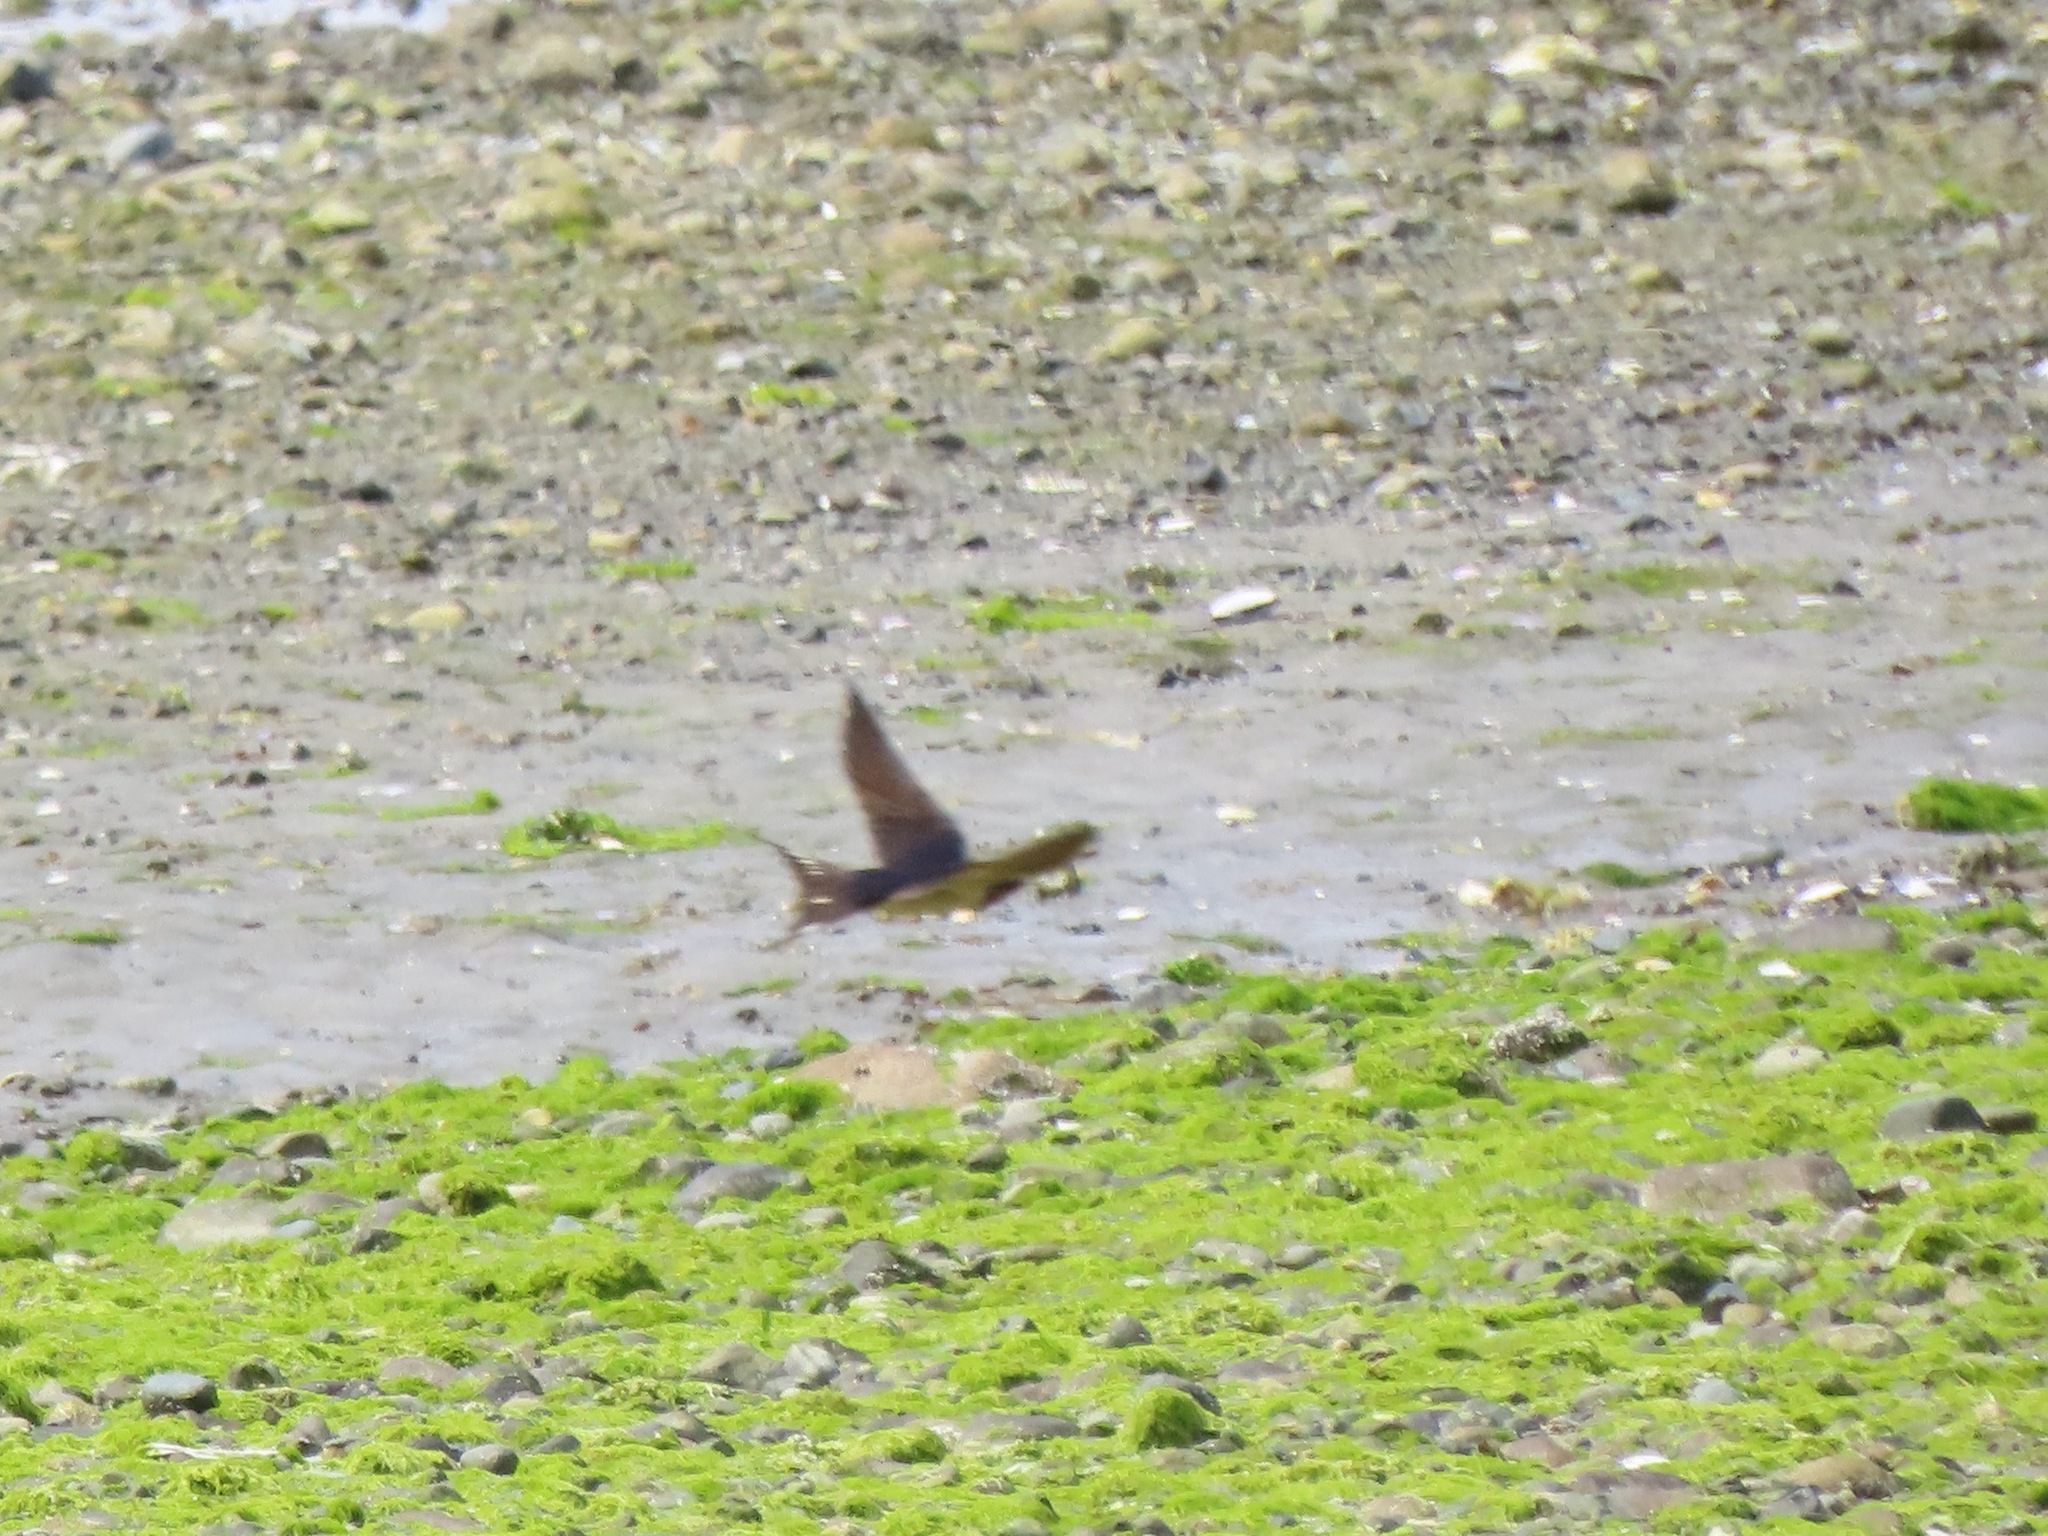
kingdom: Animalia
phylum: Chordata
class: Aves
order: Passeriformes
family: Hirundinidae
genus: Hirundo
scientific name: Hirundo rustica
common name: Barn swallow
